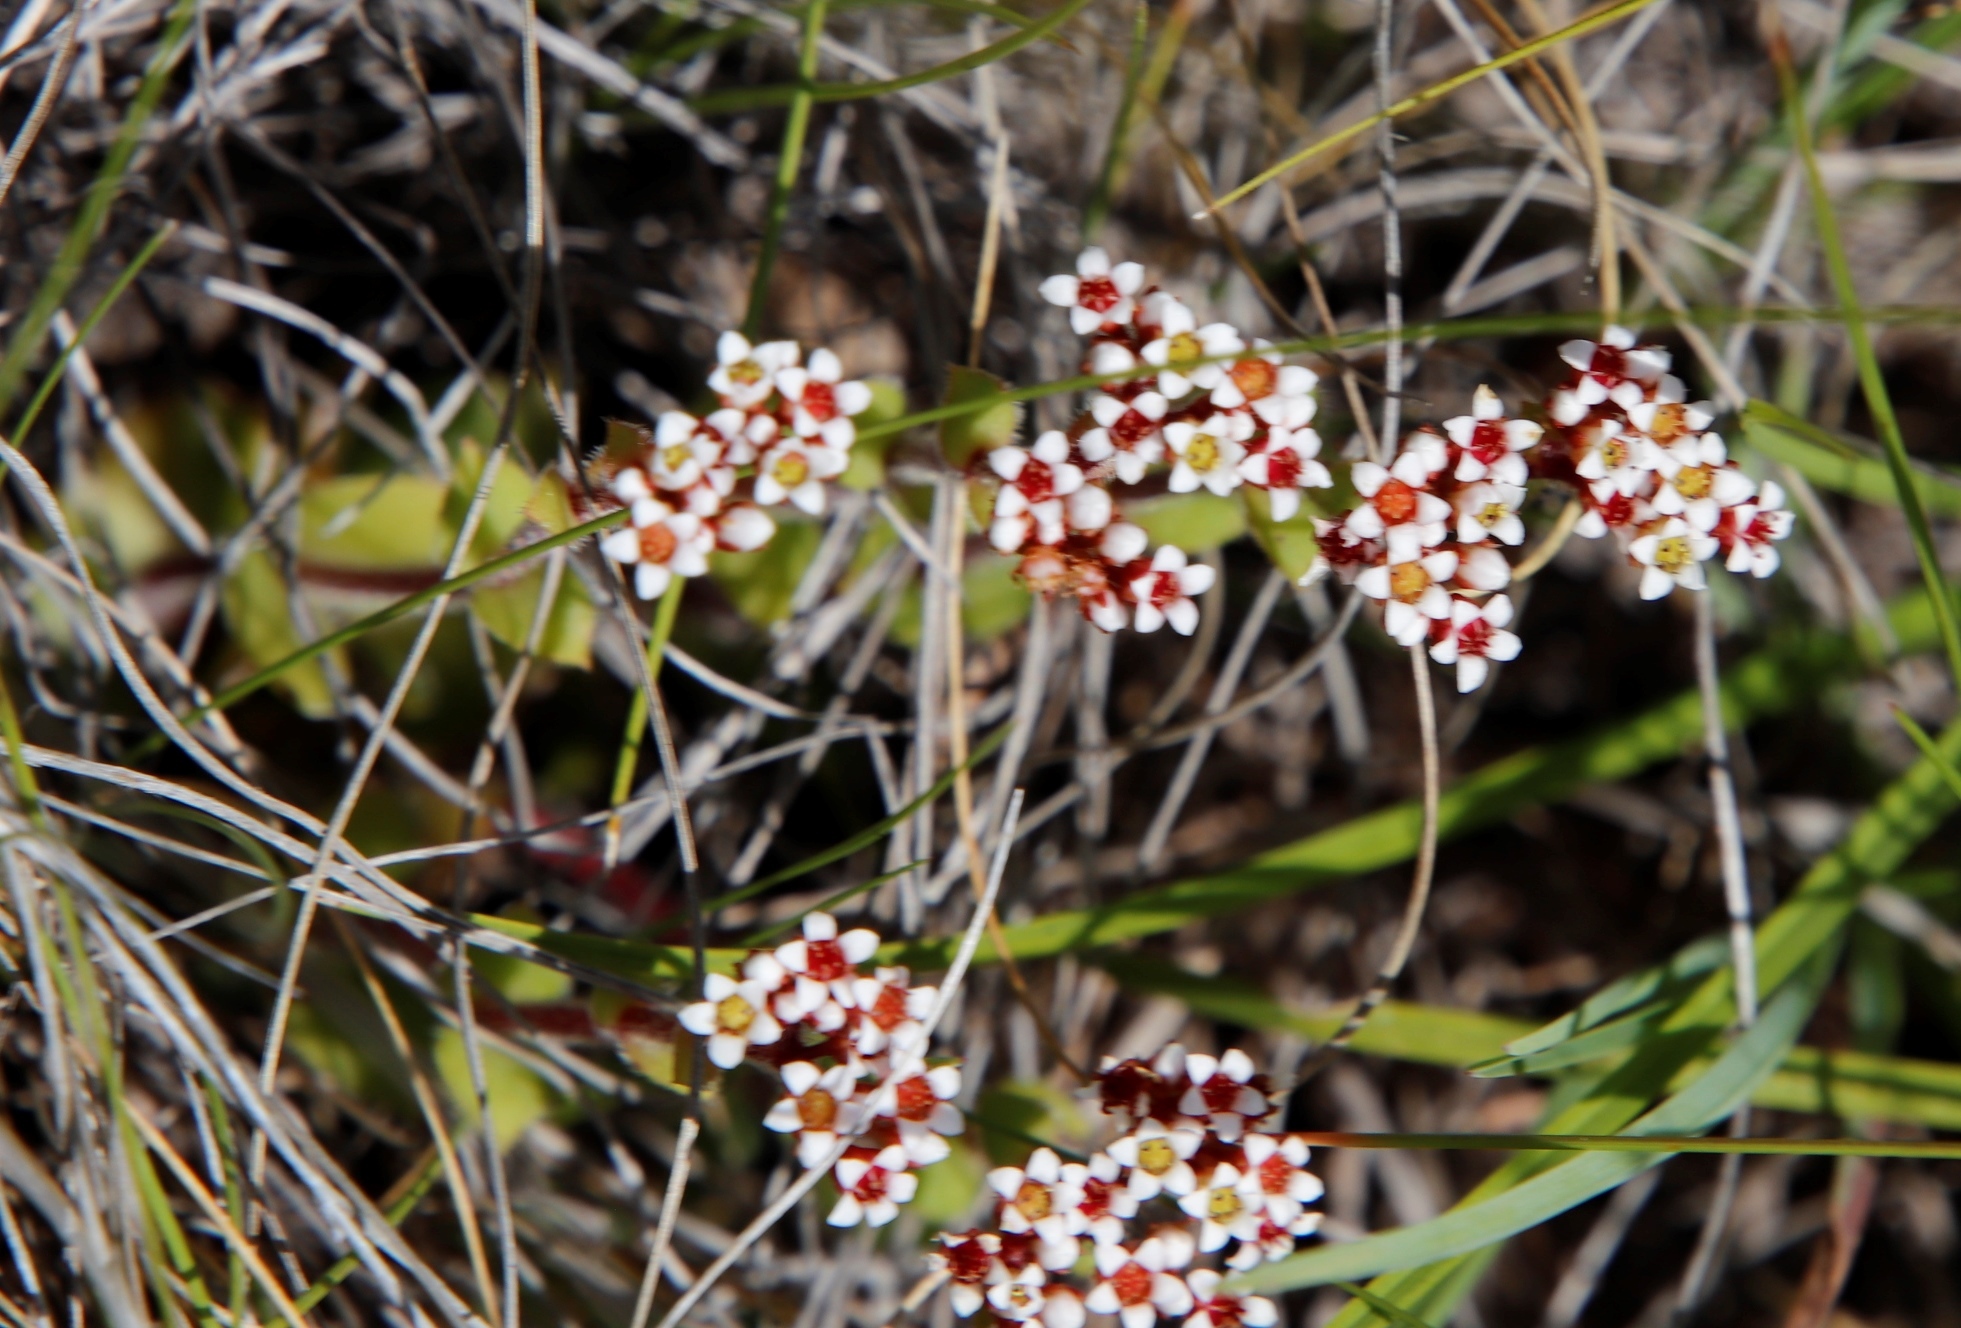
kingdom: Plantae
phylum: Tracheophyta
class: Magnoliopsida
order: Saxifragales
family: Crassulaceae
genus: Crassula
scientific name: Crassula natalensis
